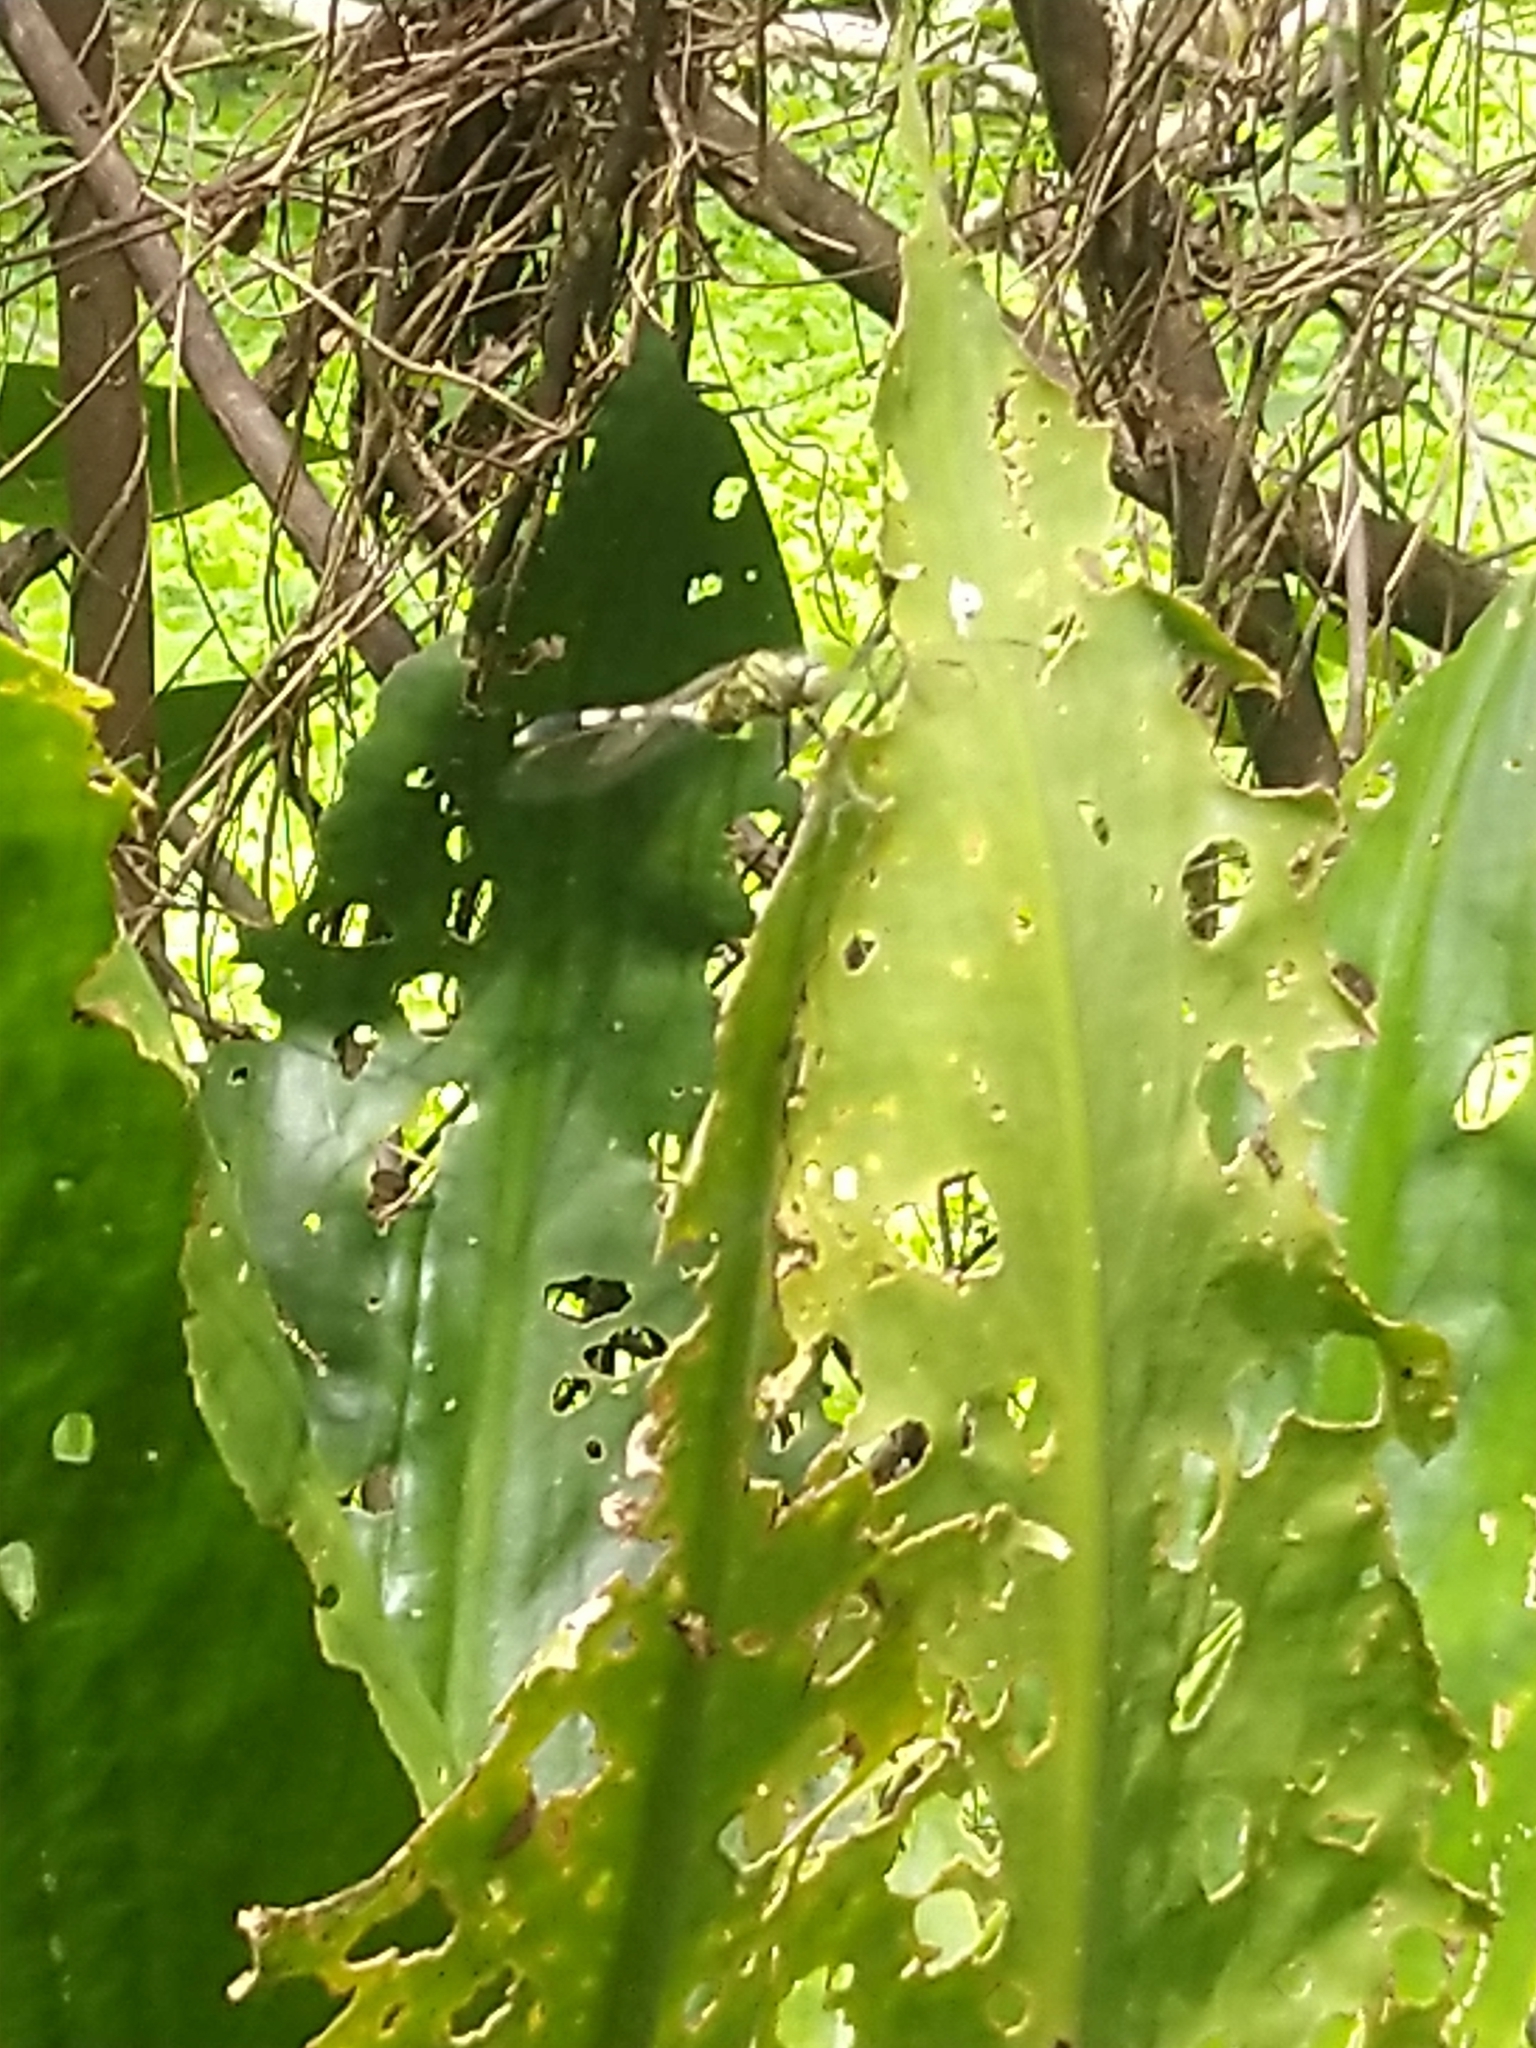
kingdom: Animalia
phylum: Arthropoda
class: Insecta
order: Odonata
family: Libellulidae
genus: Orthetrum
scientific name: Orthetrum sabina
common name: Slender skimmer
